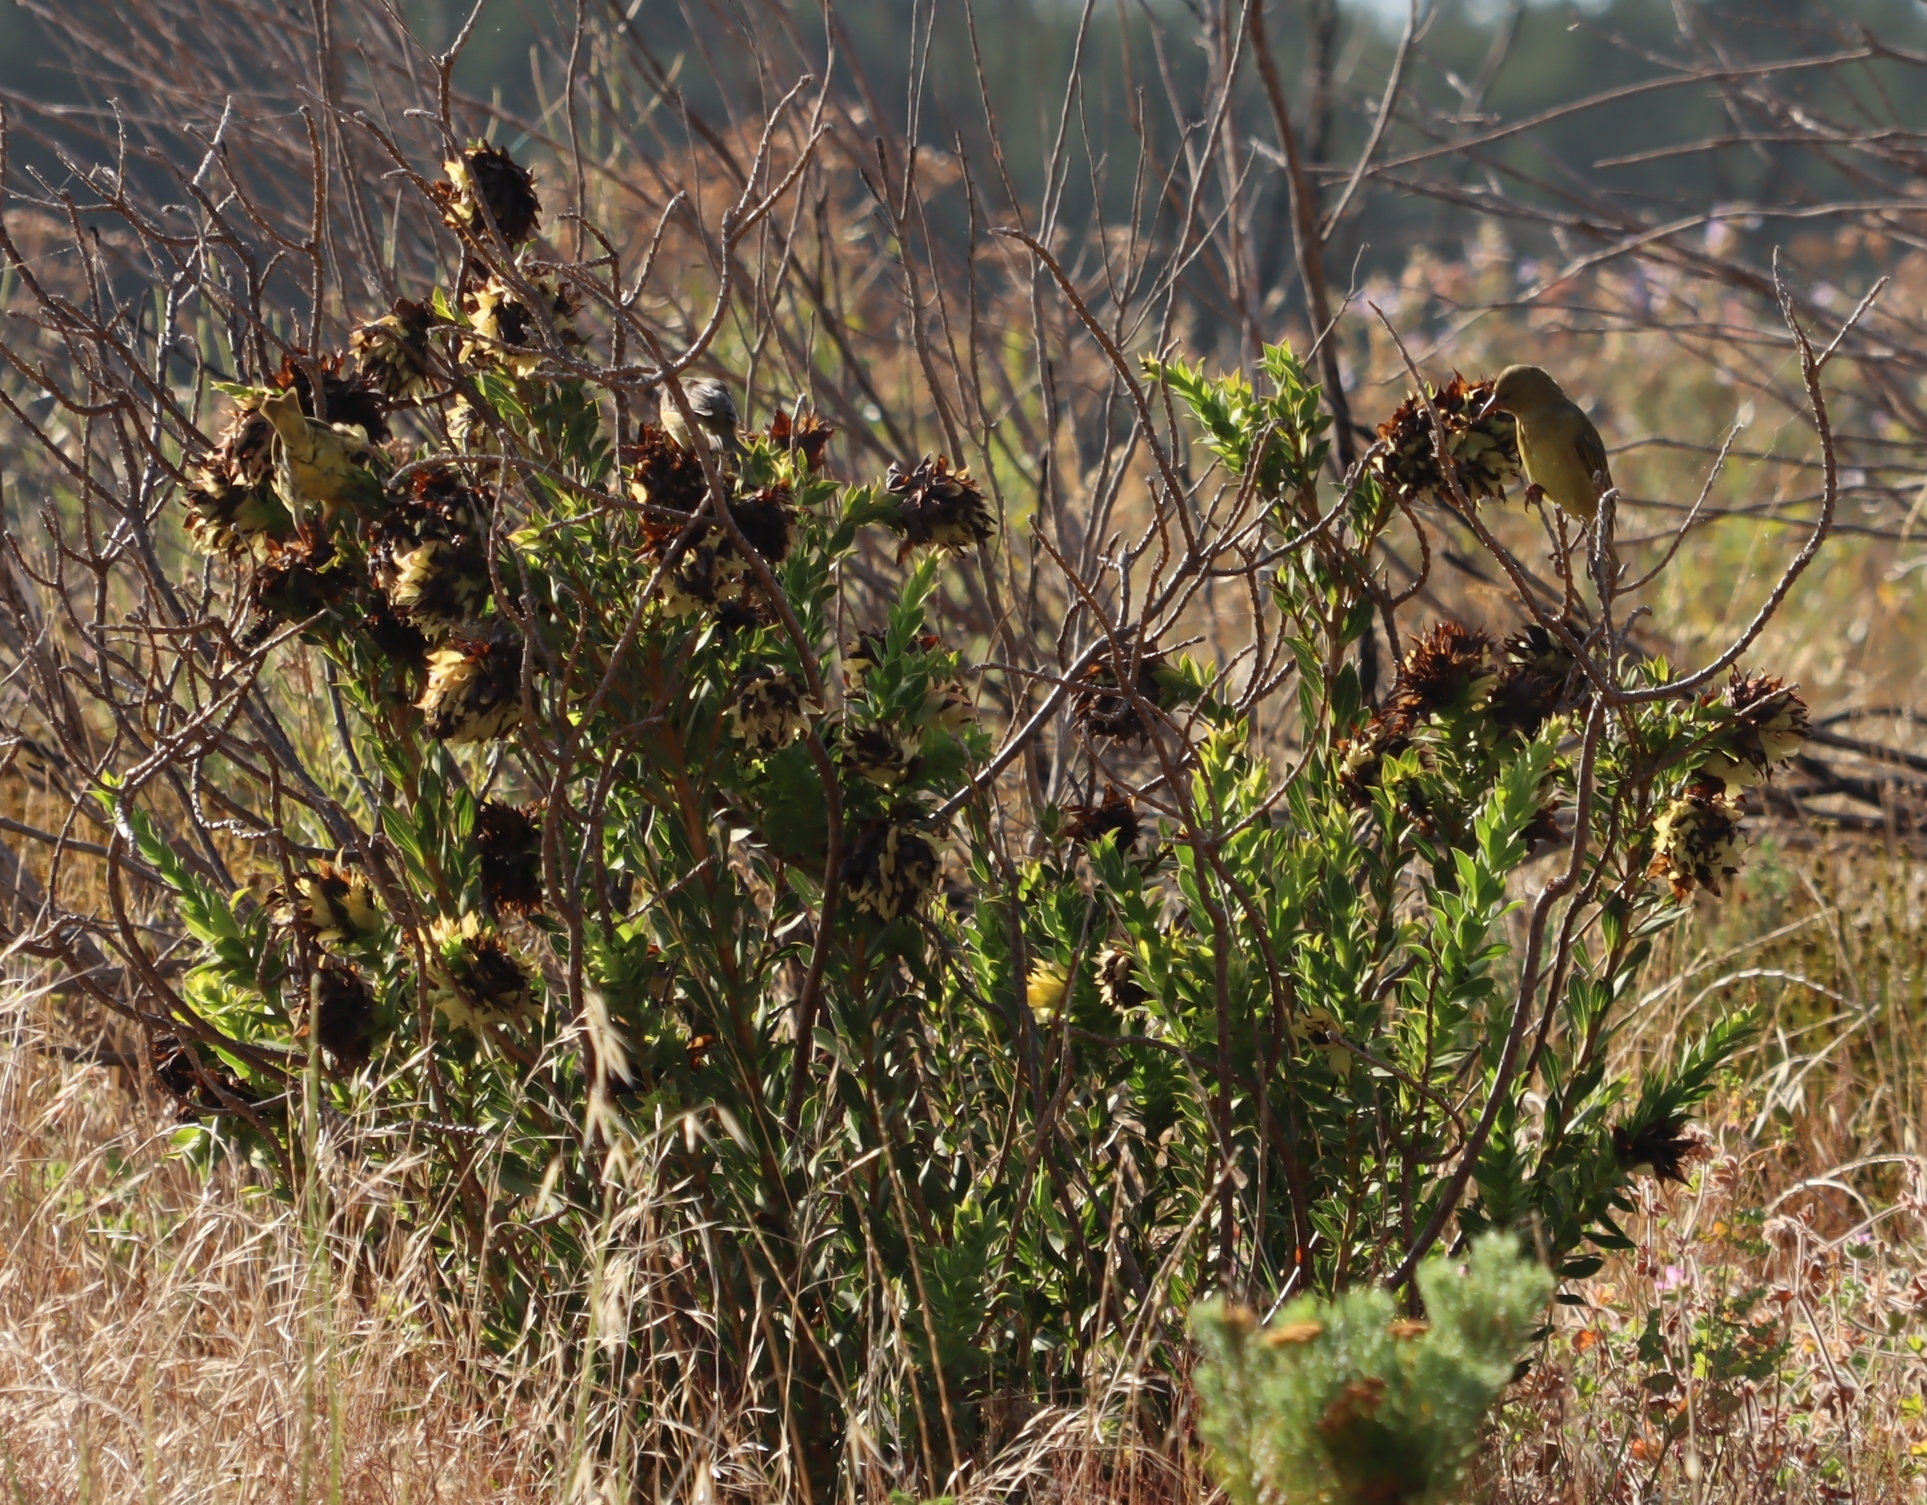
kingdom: Plantae
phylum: Tracheophyta
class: Magnoliopsida
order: Fabales
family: Fabaceae
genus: Liparia
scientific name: Liparia splendens
